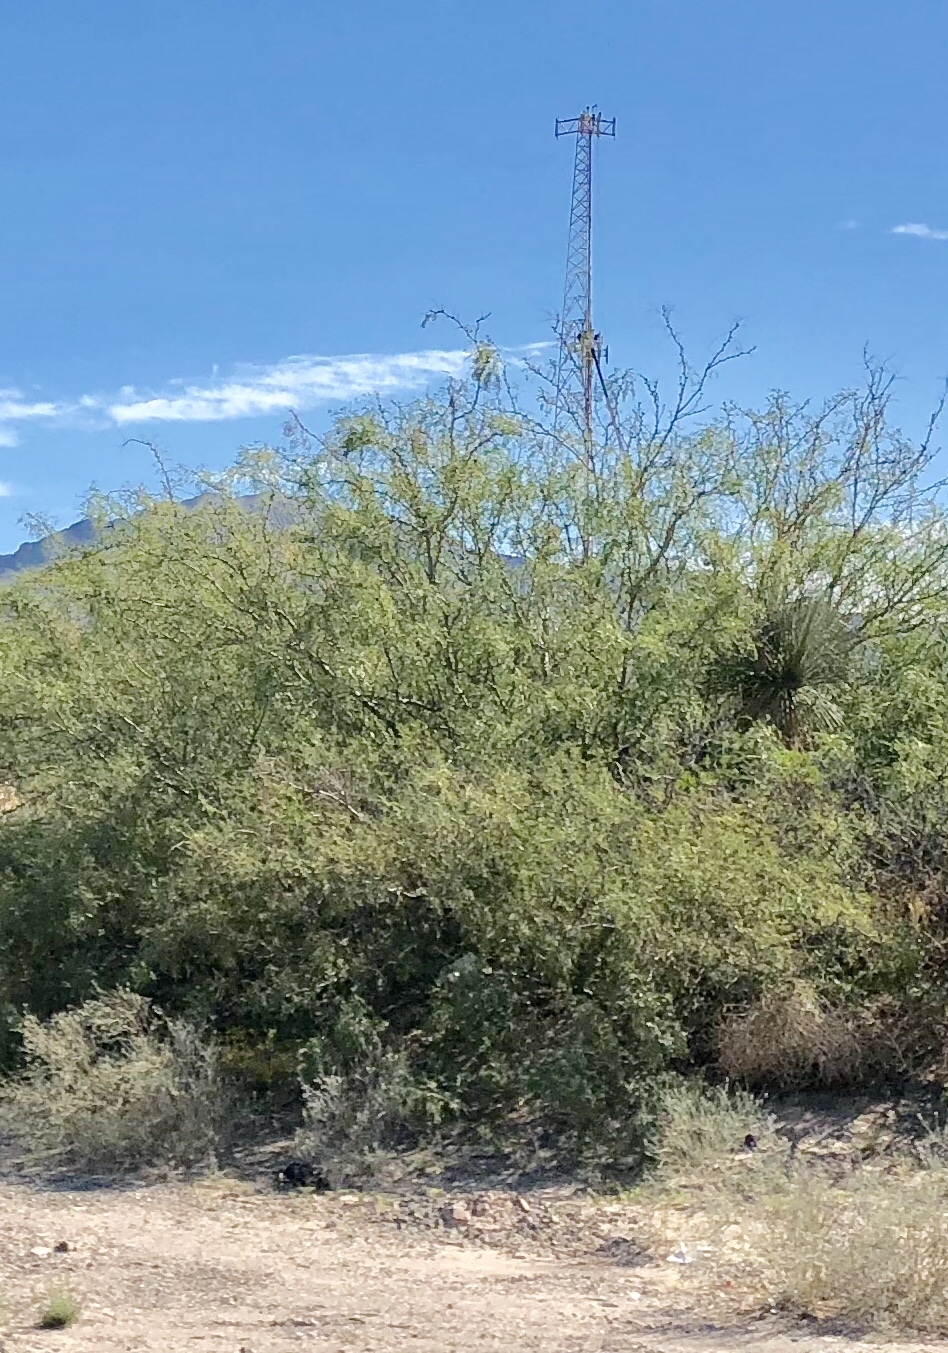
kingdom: Plantae
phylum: Tracheophyta
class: Magnoliopsida
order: Fabales
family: Fabaceae
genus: Prosopis
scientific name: Prosopis glandulosa
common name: Honey mesquite
